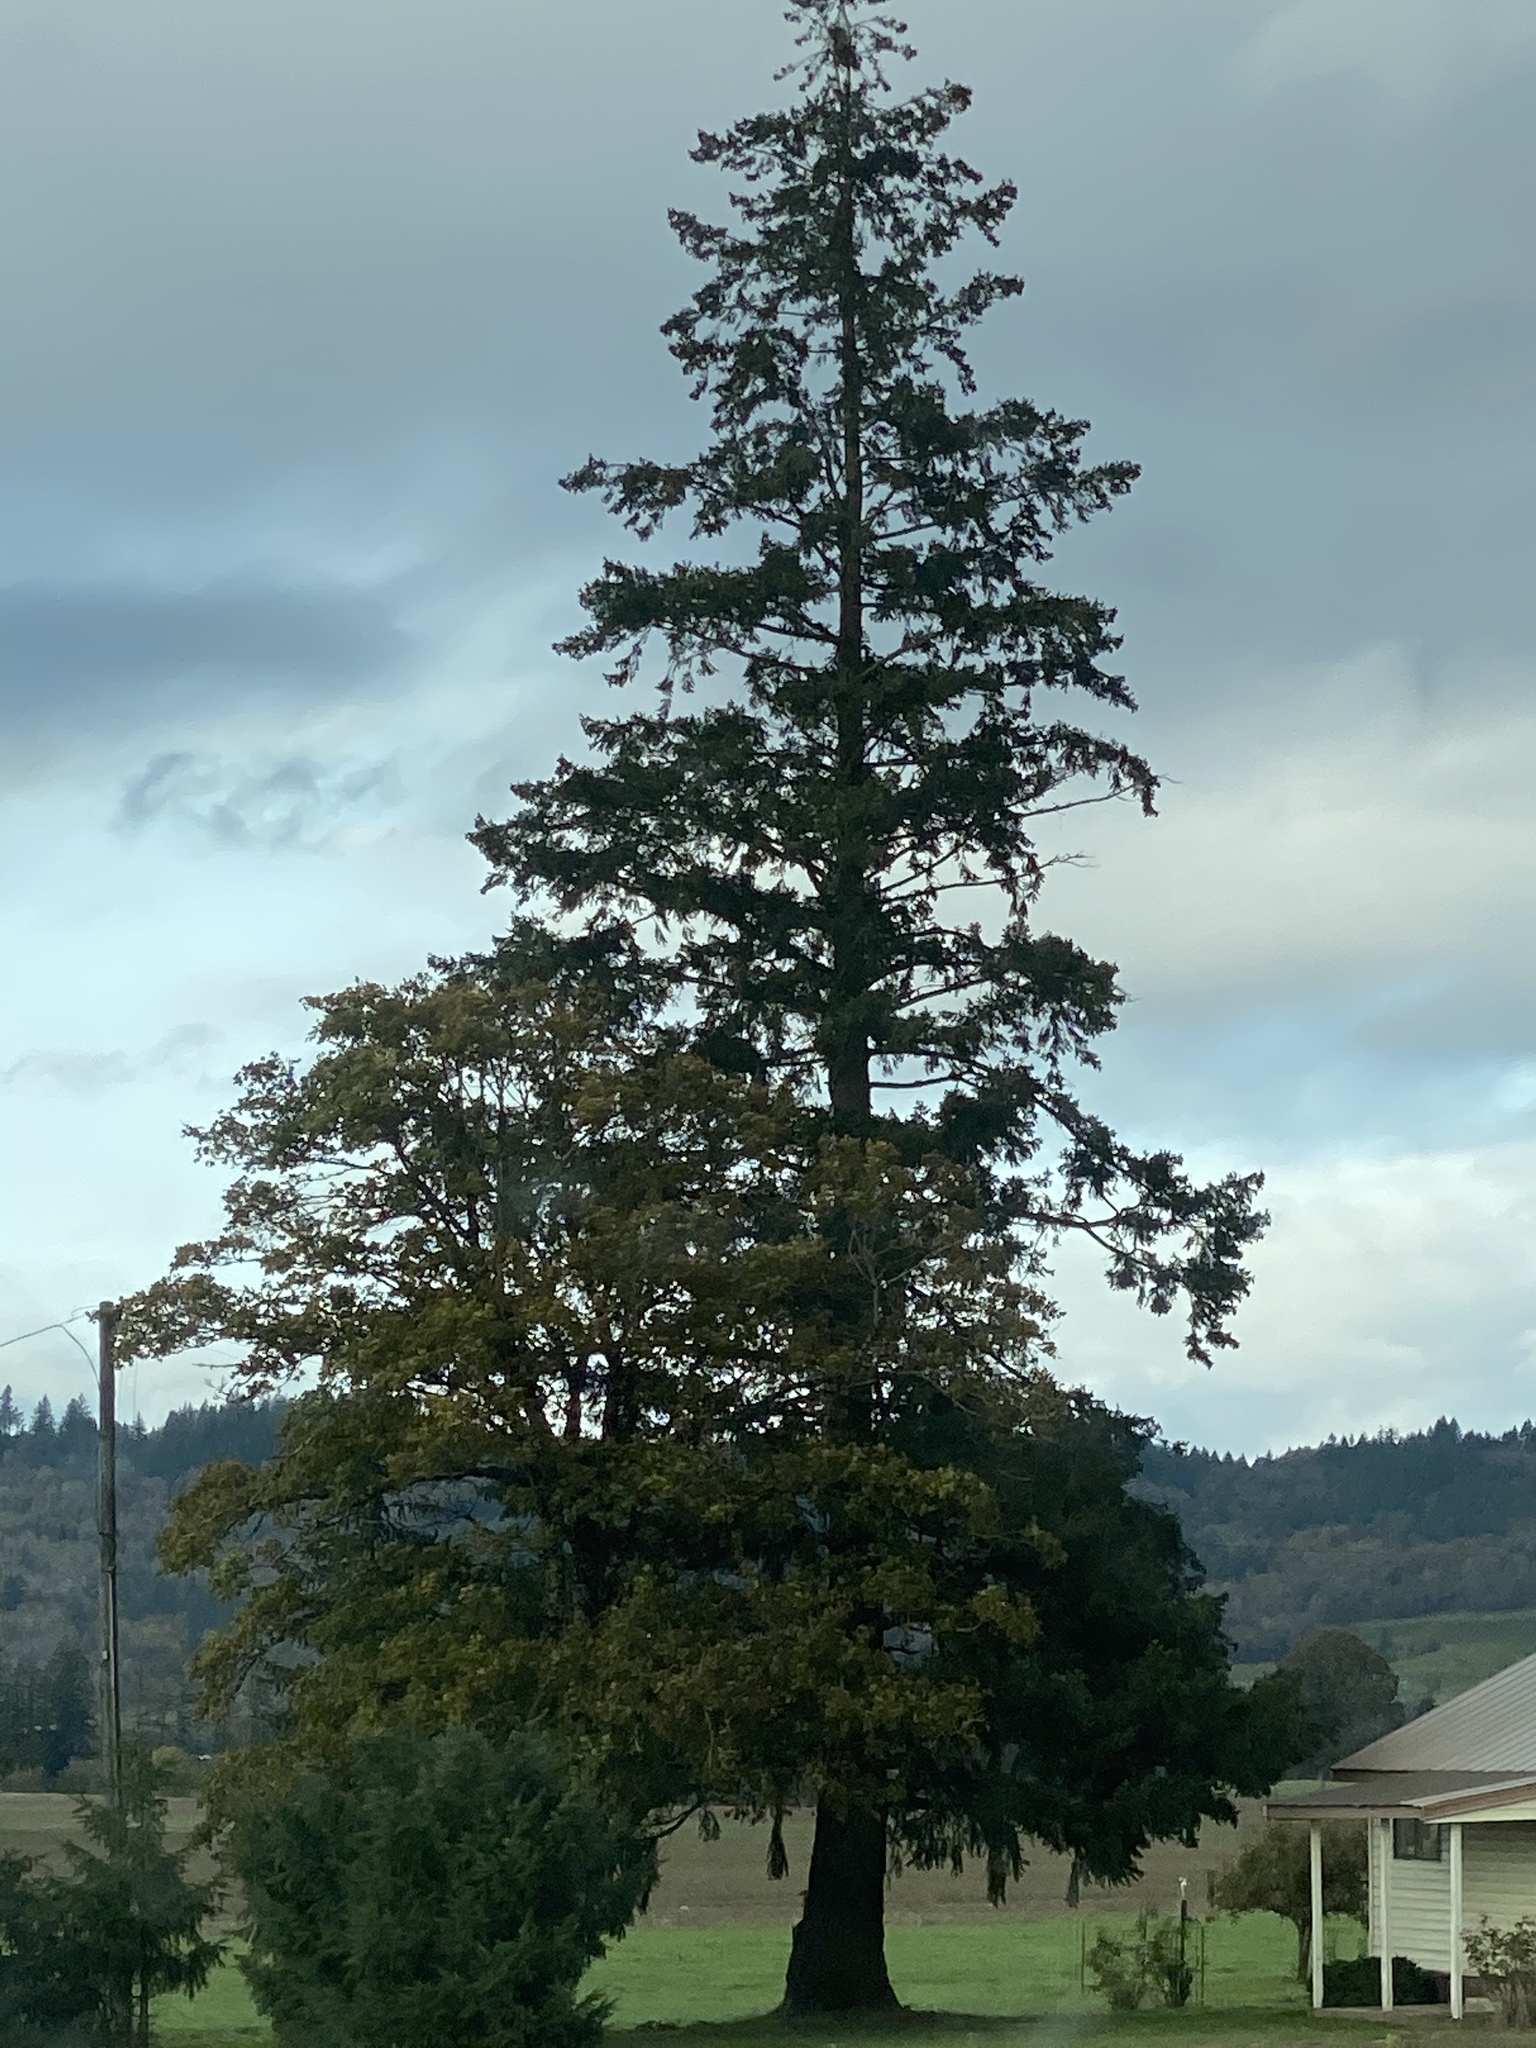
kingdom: Plantae
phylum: Tracheophyta
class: Pinopsida
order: Pinales
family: Pinaceae
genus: Pseudotsuga
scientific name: Pseudotsuga menziesii
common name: Douglas fir
